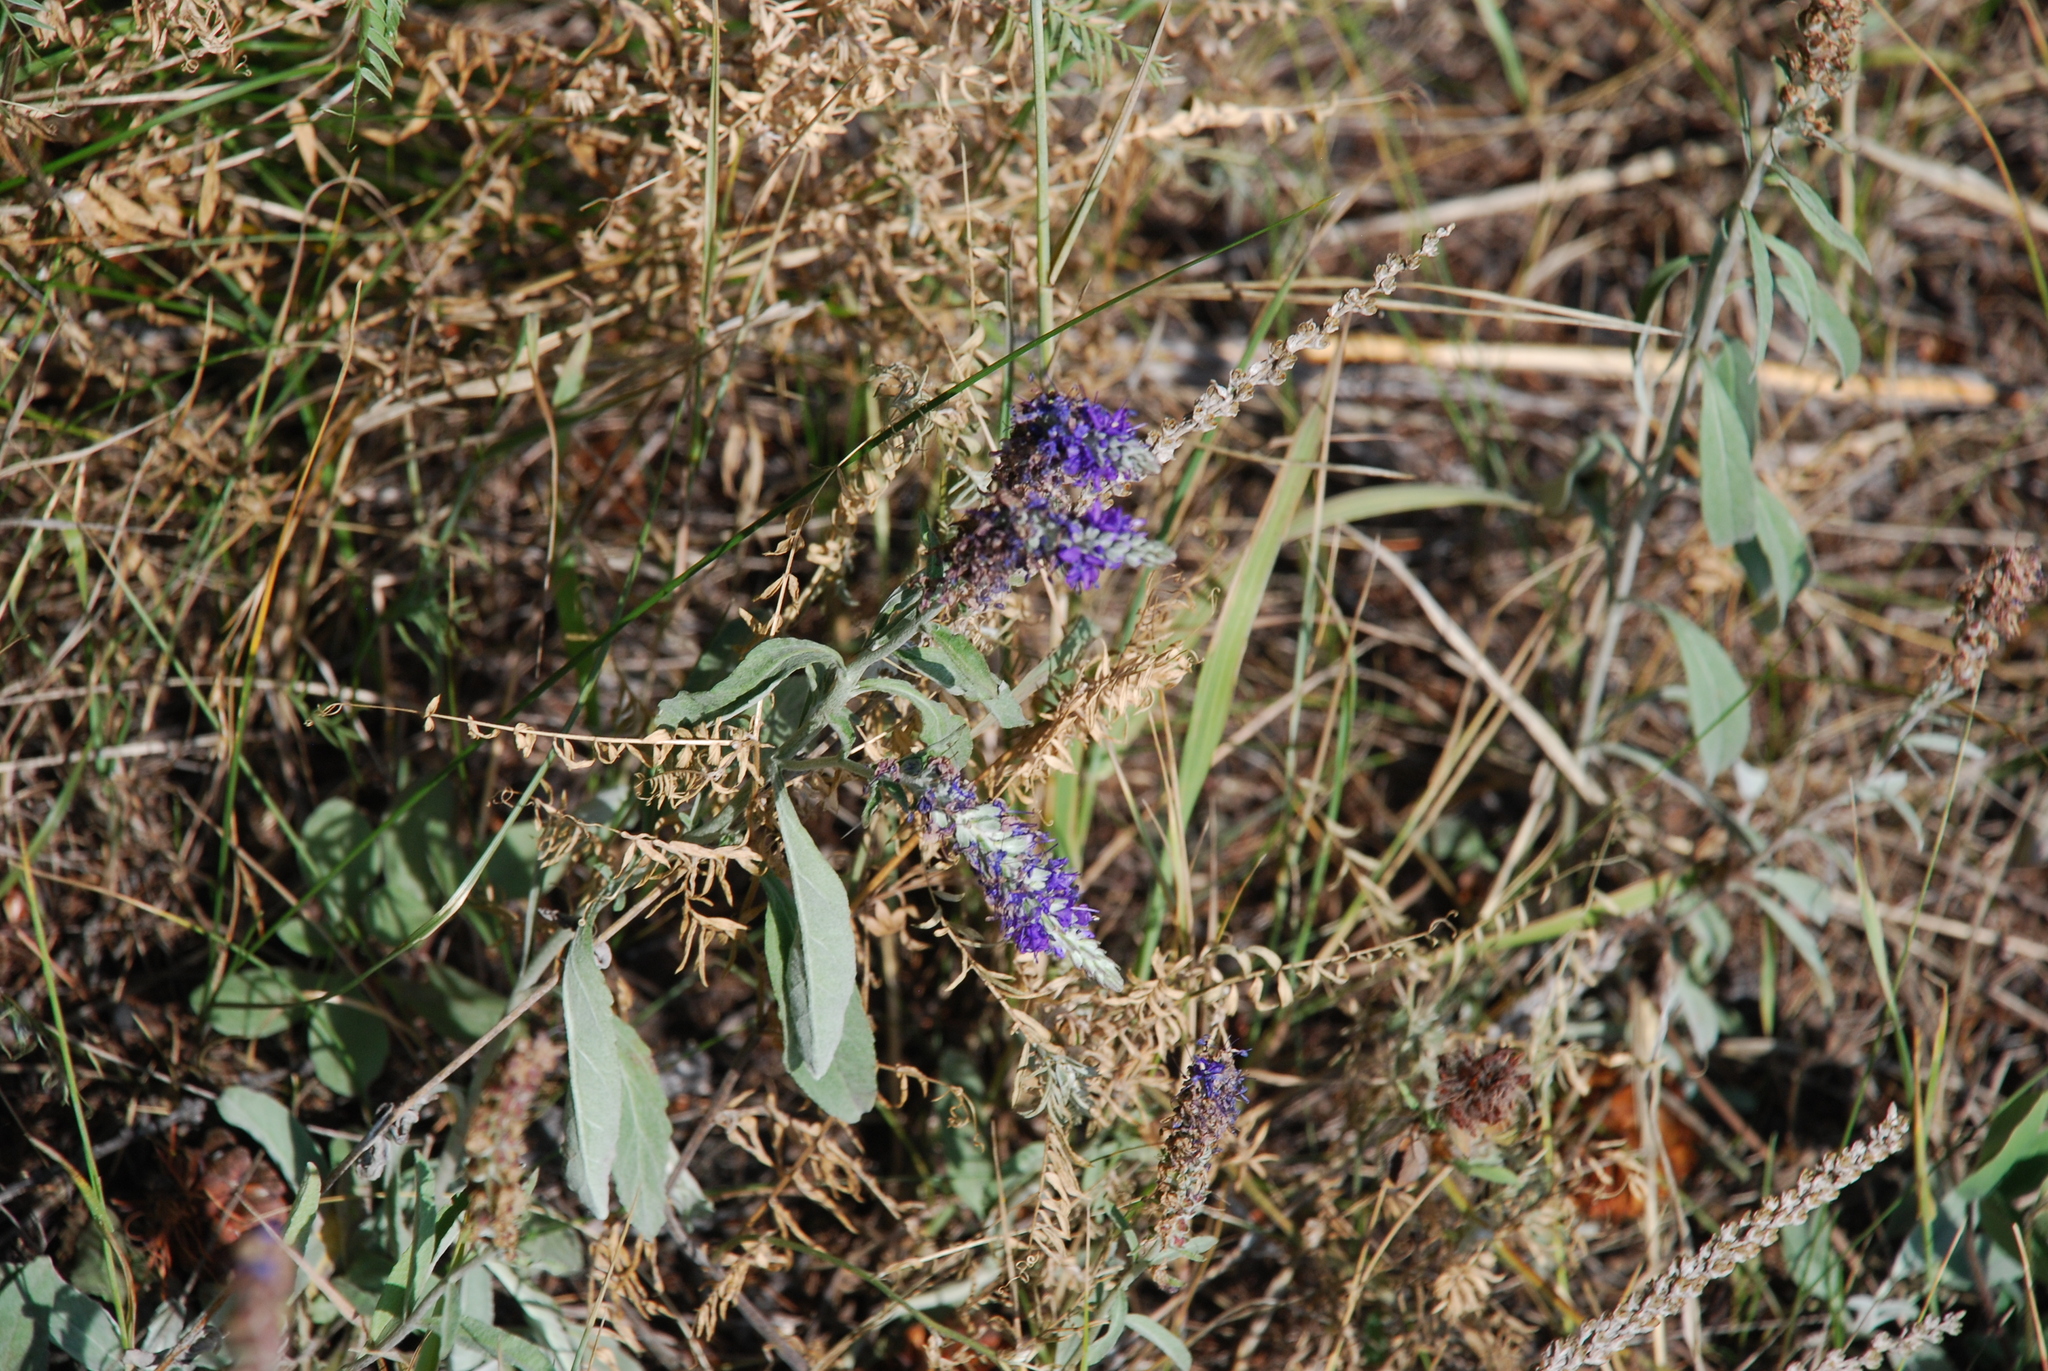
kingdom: Plantae
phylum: Tracheophyta
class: Magnoliopsida
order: Lamiales
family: Plantaginaceae
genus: Veronica
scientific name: Veronica incana
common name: Silver speedwell
